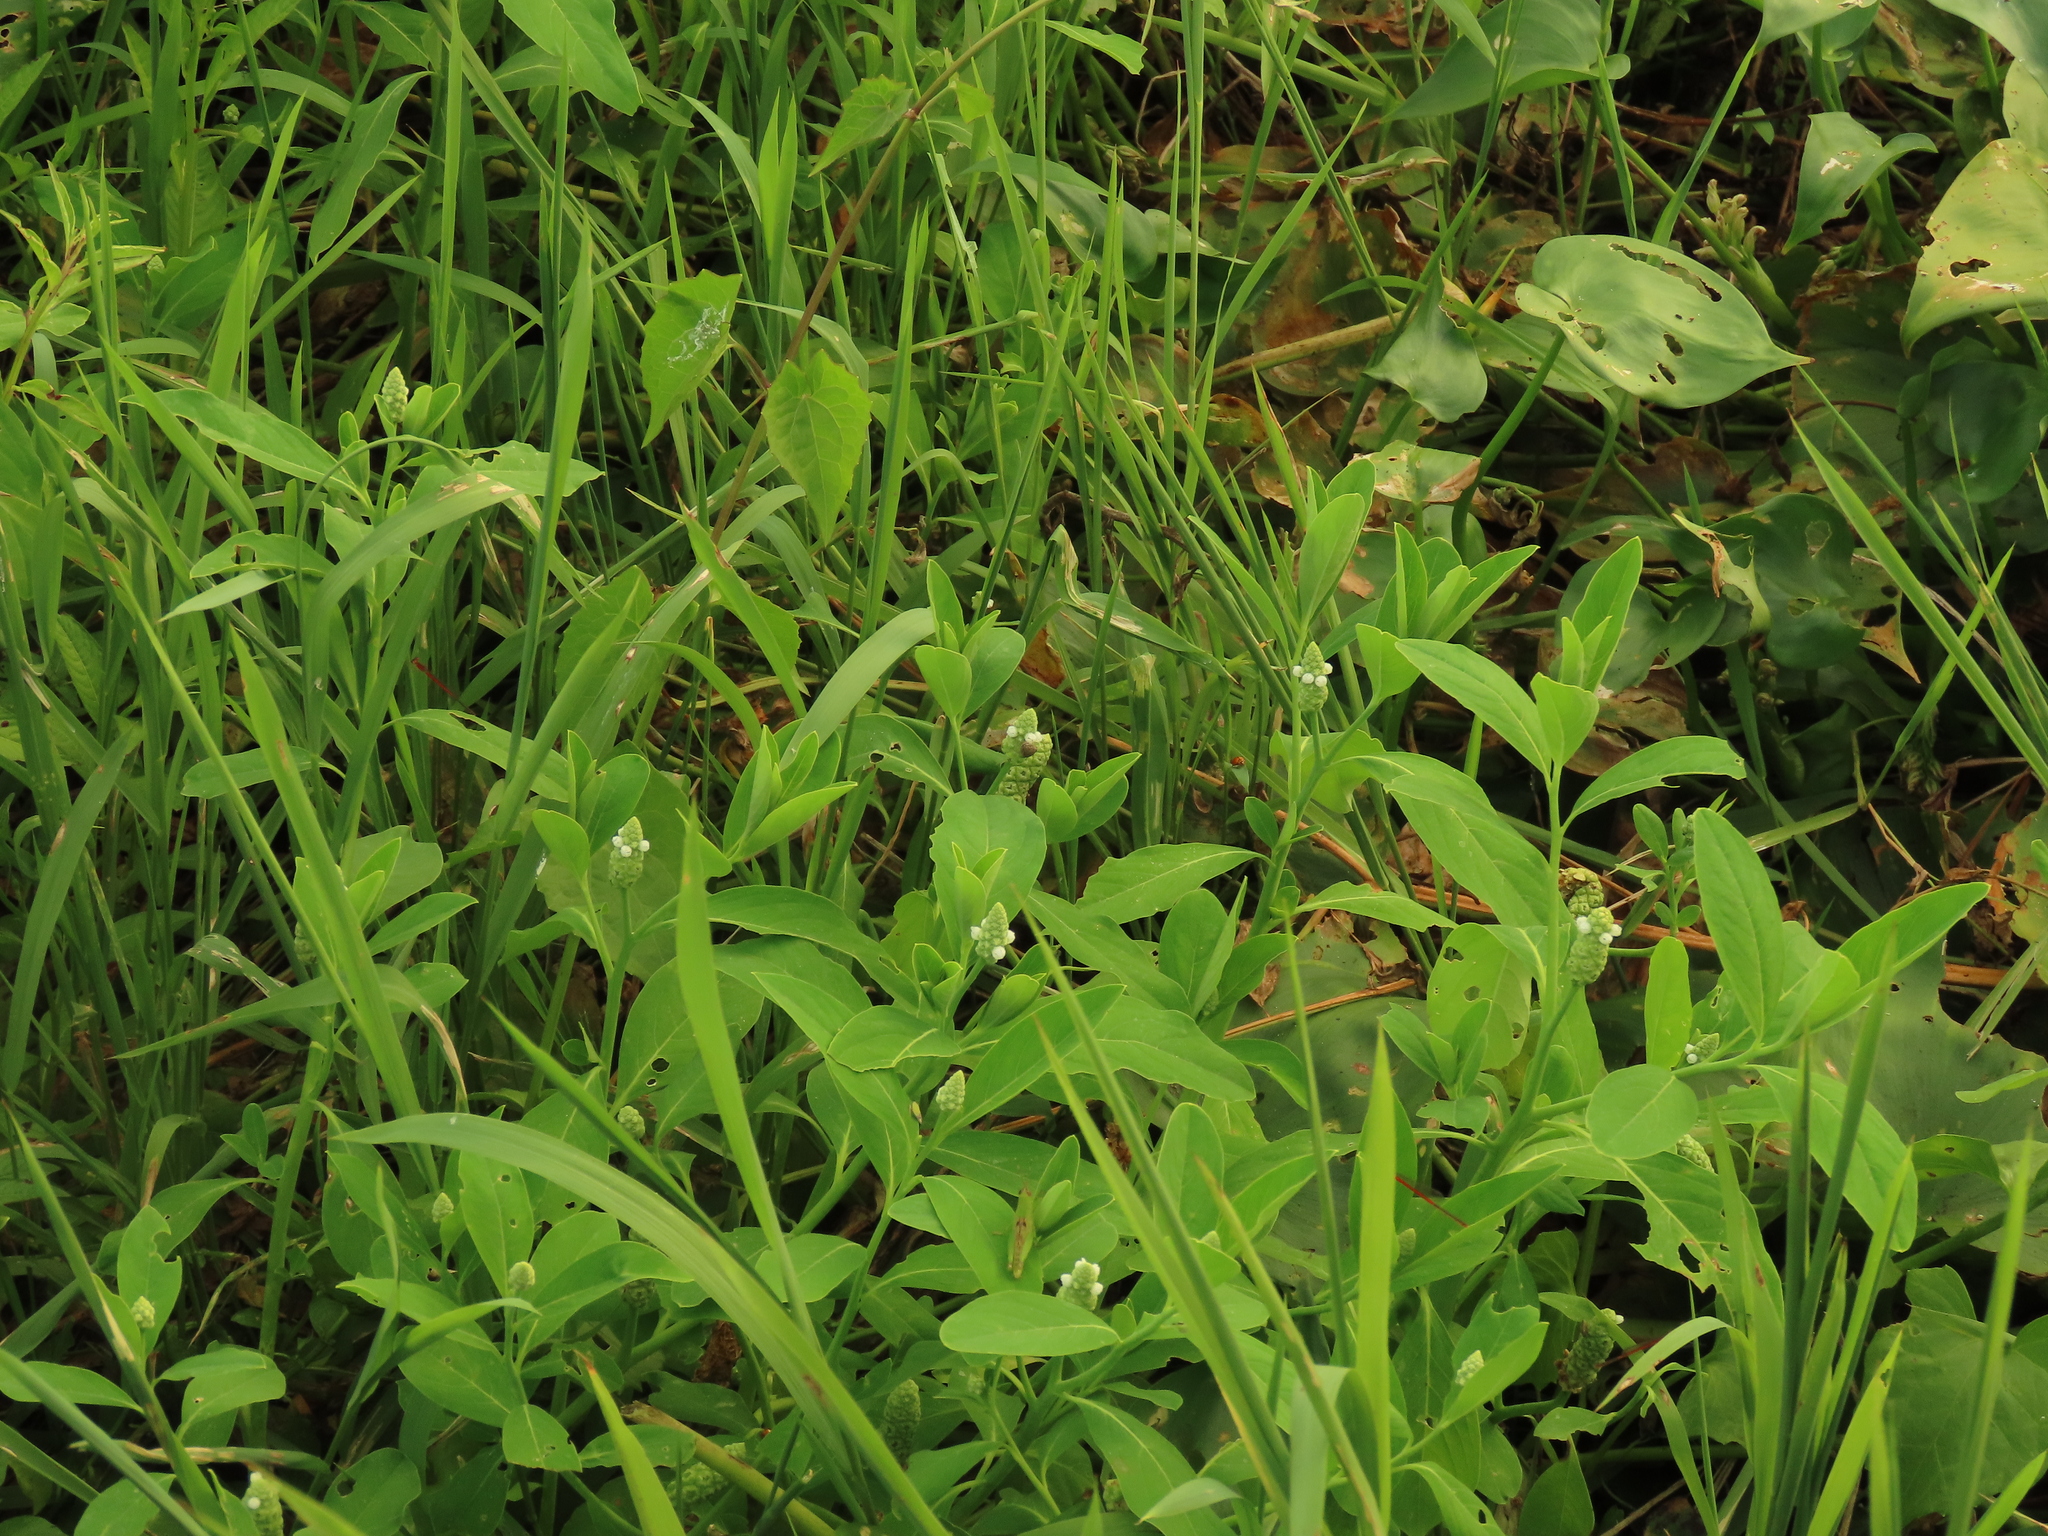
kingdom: Plantae
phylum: Tracheophyta
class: Magnoliopsida
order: Solanales
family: Sphenocleaceae
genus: Sphenoclea
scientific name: Sphenoclea zeylanica
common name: Chickenspike
